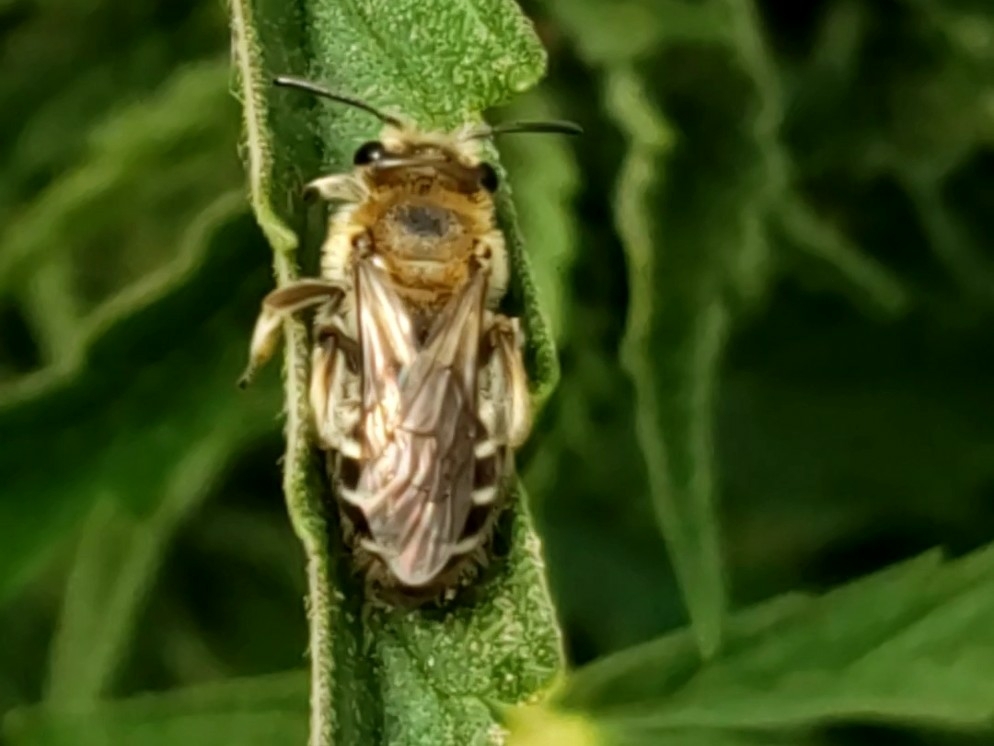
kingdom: Animalia
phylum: Arthropoda
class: Insecta
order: Hymenoptera
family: Andrenidae
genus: Andrena
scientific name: Andrena
